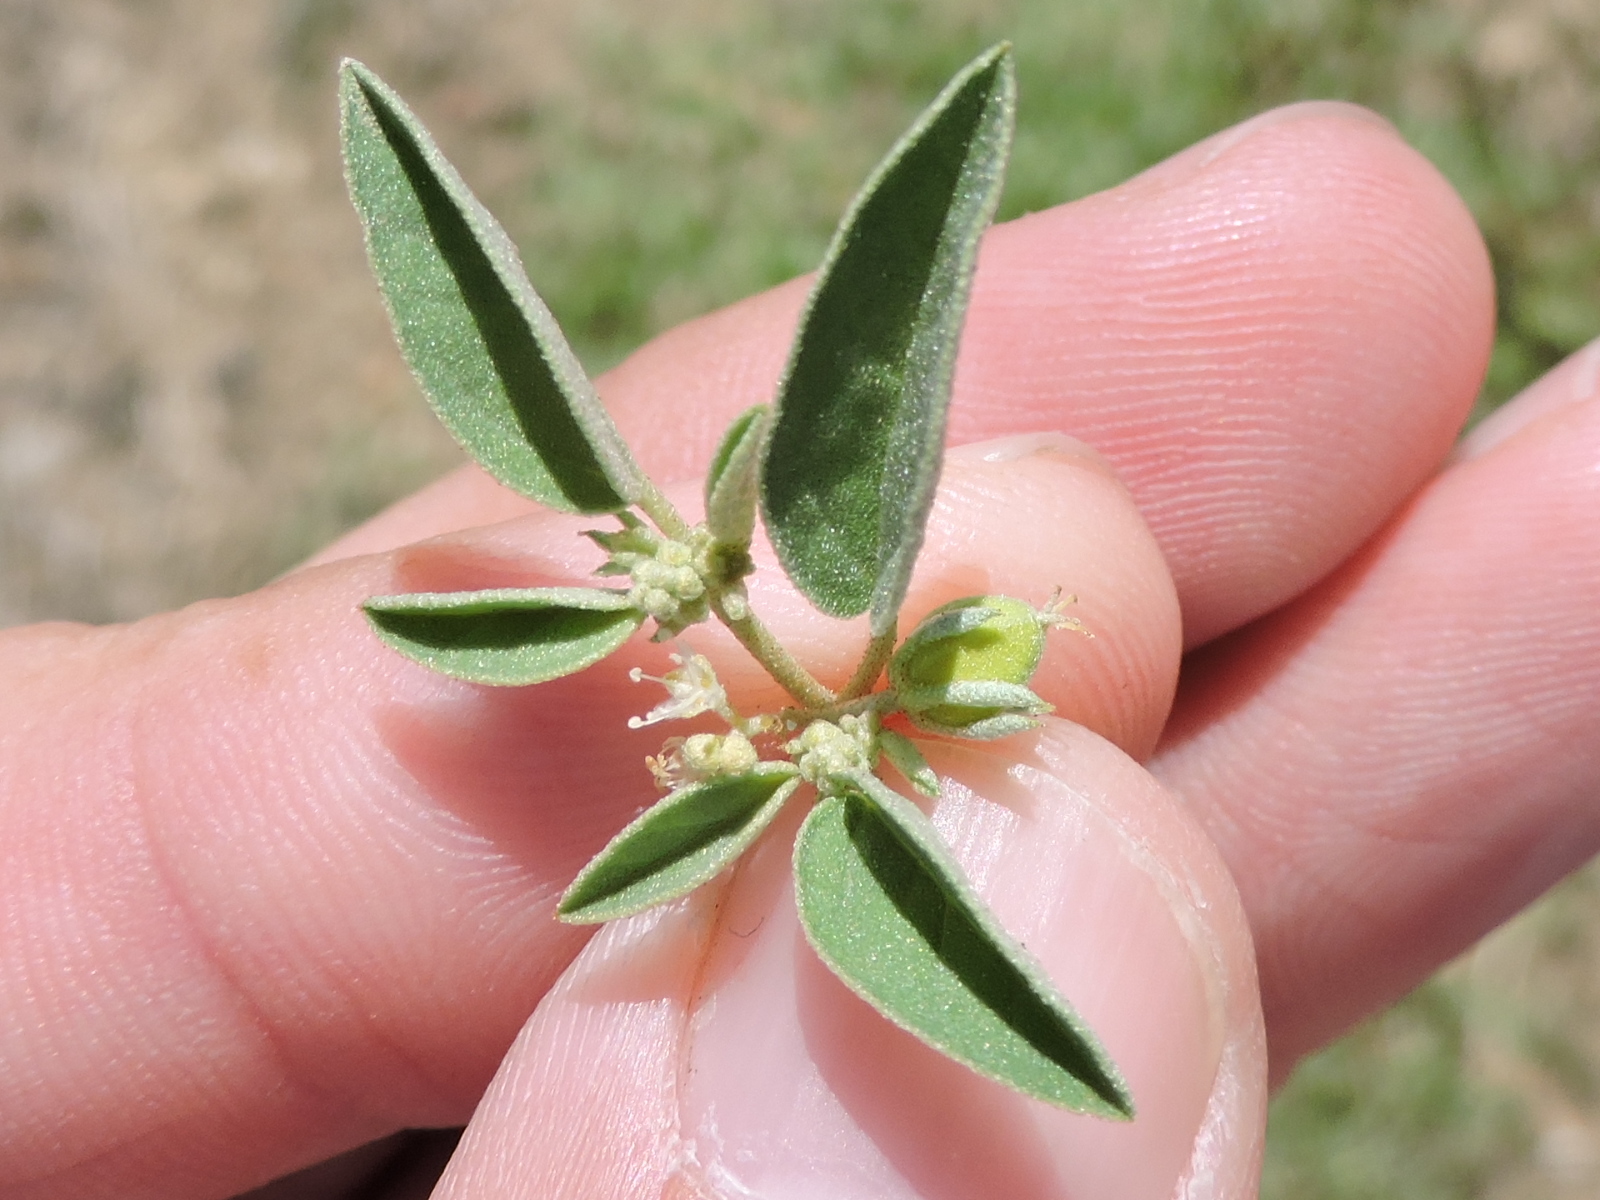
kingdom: Plantae
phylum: Tracheophyta
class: Magnoliopsida
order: Malpighiales
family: Euphorbiaceae
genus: Croton
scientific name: Croton monanthogynus
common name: One-seed croton
